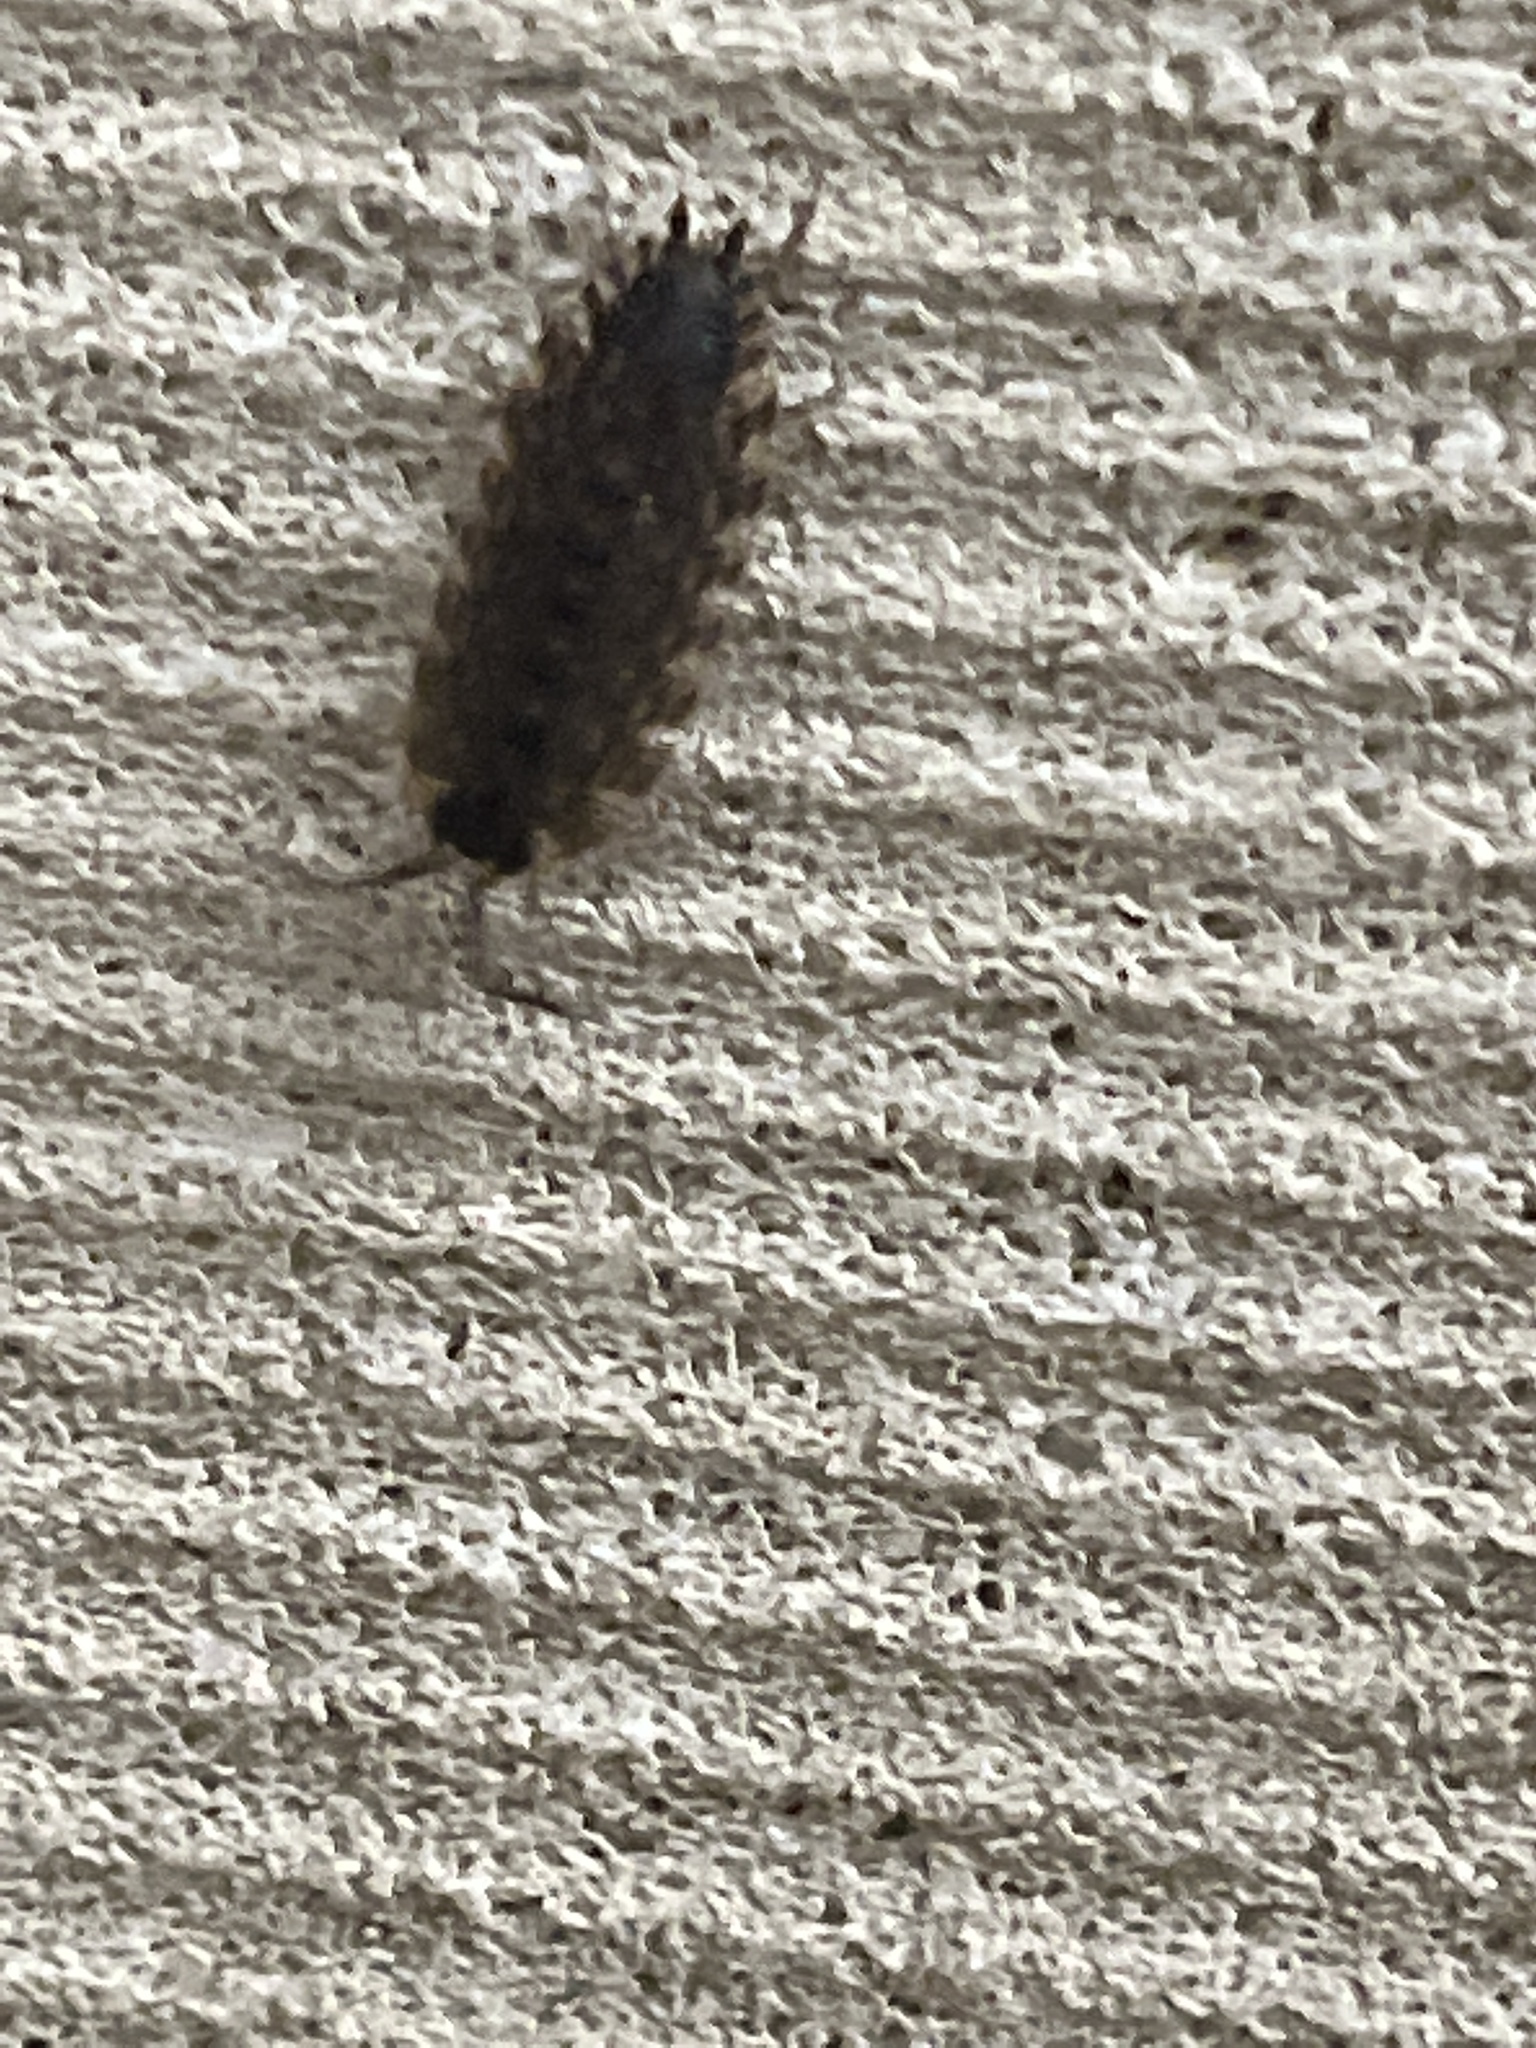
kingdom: Animalia
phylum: Arthropoda
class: Malacostraca
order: Isopoda
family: Porcellionidae
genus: Porcellio
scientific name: Porcellio spinicornis
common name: Painted woodlouse
